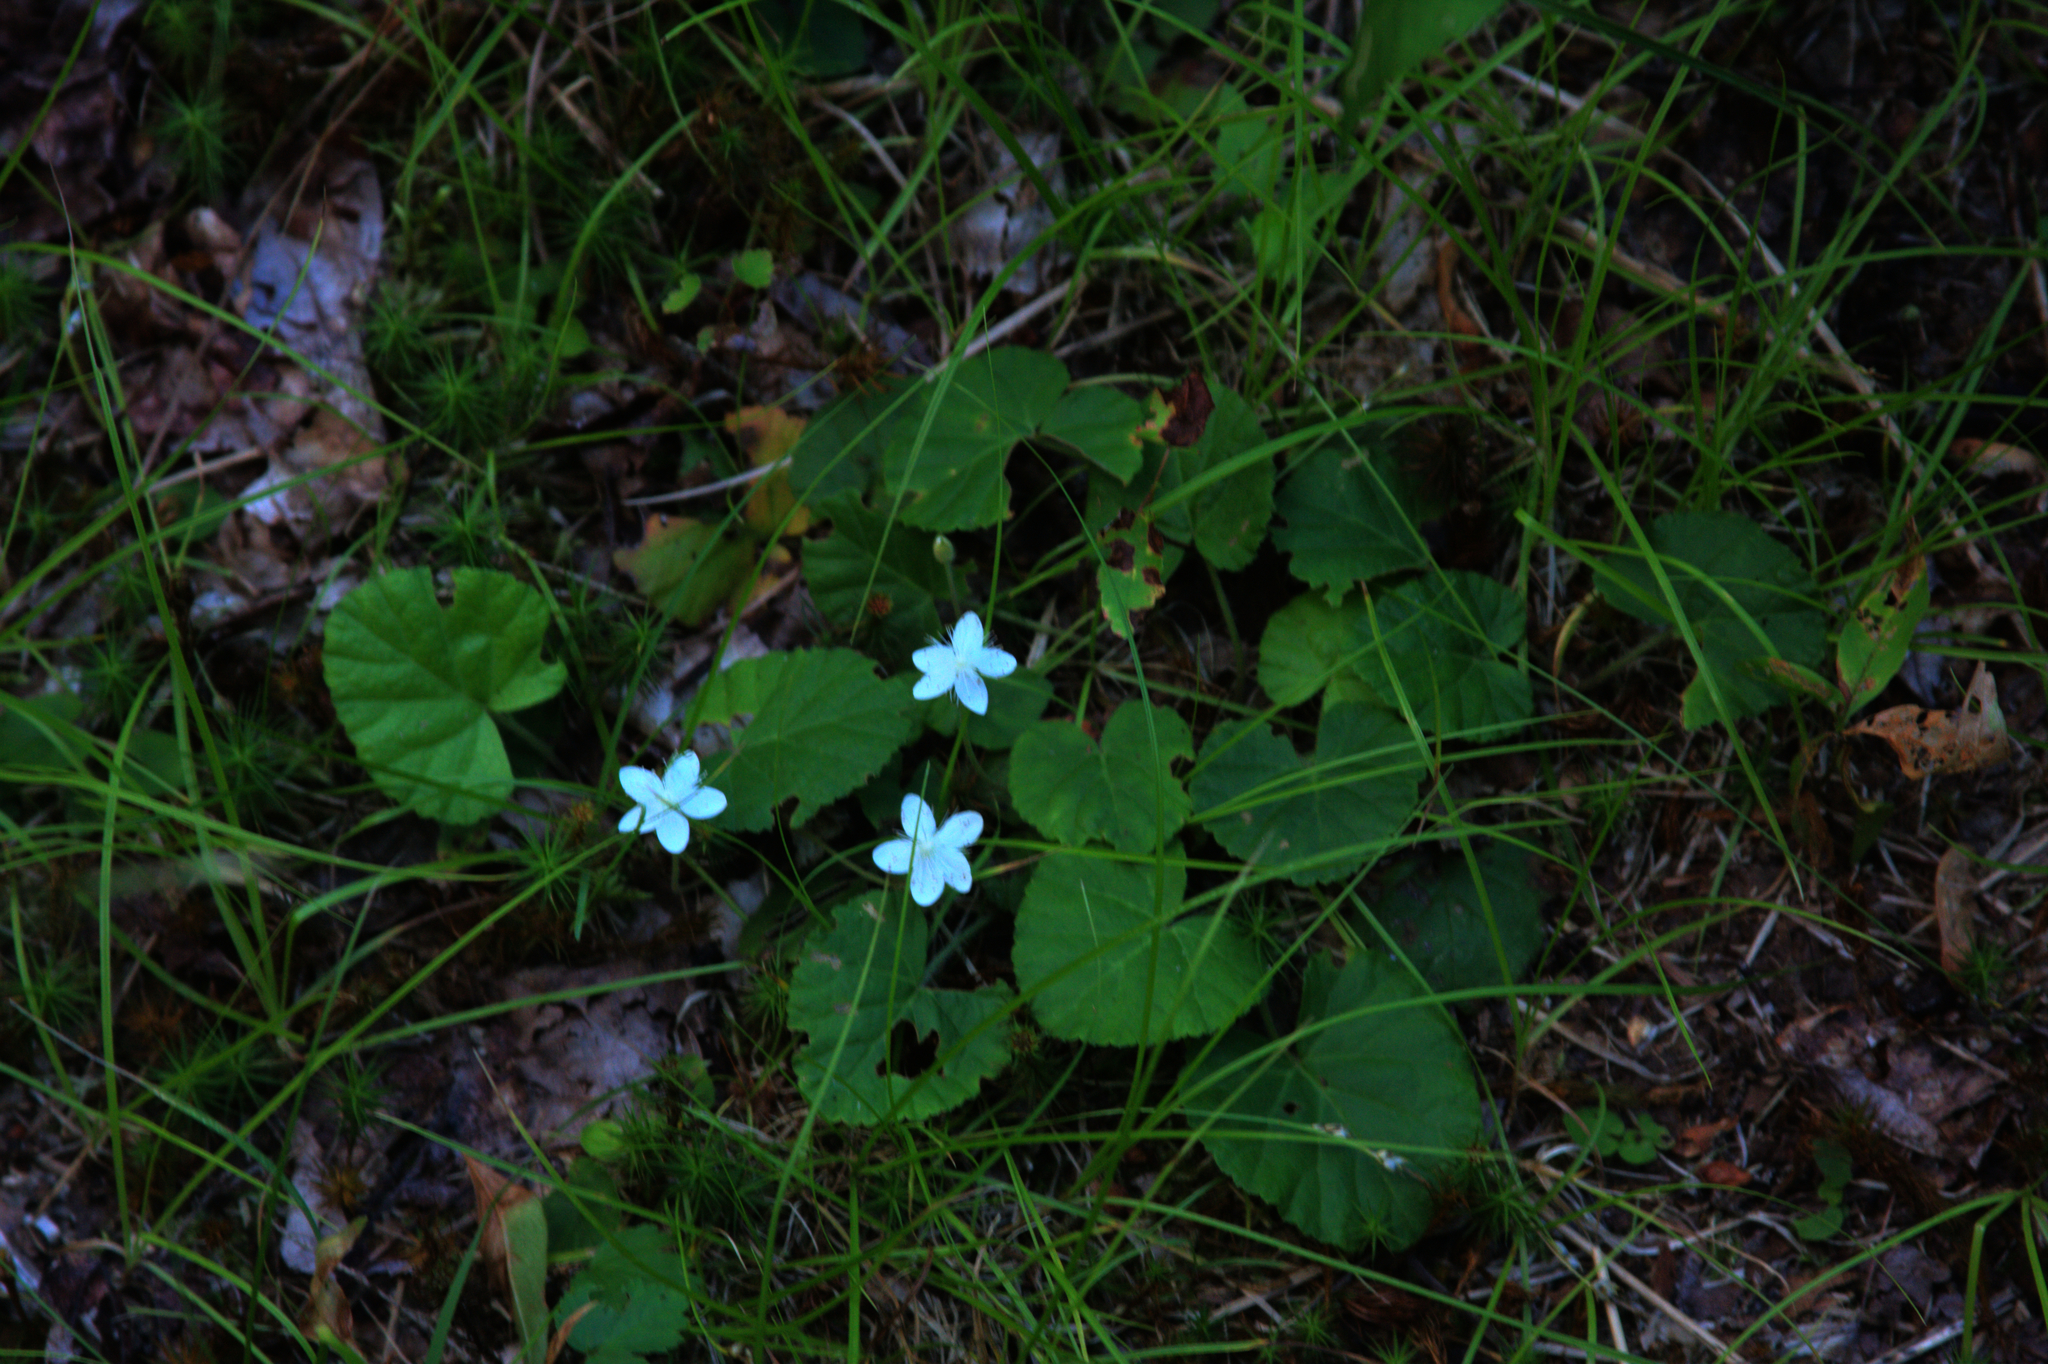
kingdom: Plantae
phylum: Tracheophyta
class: Magnoliopsida
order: Rosales
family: Rosaceae
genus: Dalibarda
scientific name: Dalibarda repens
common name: Dewdrop
